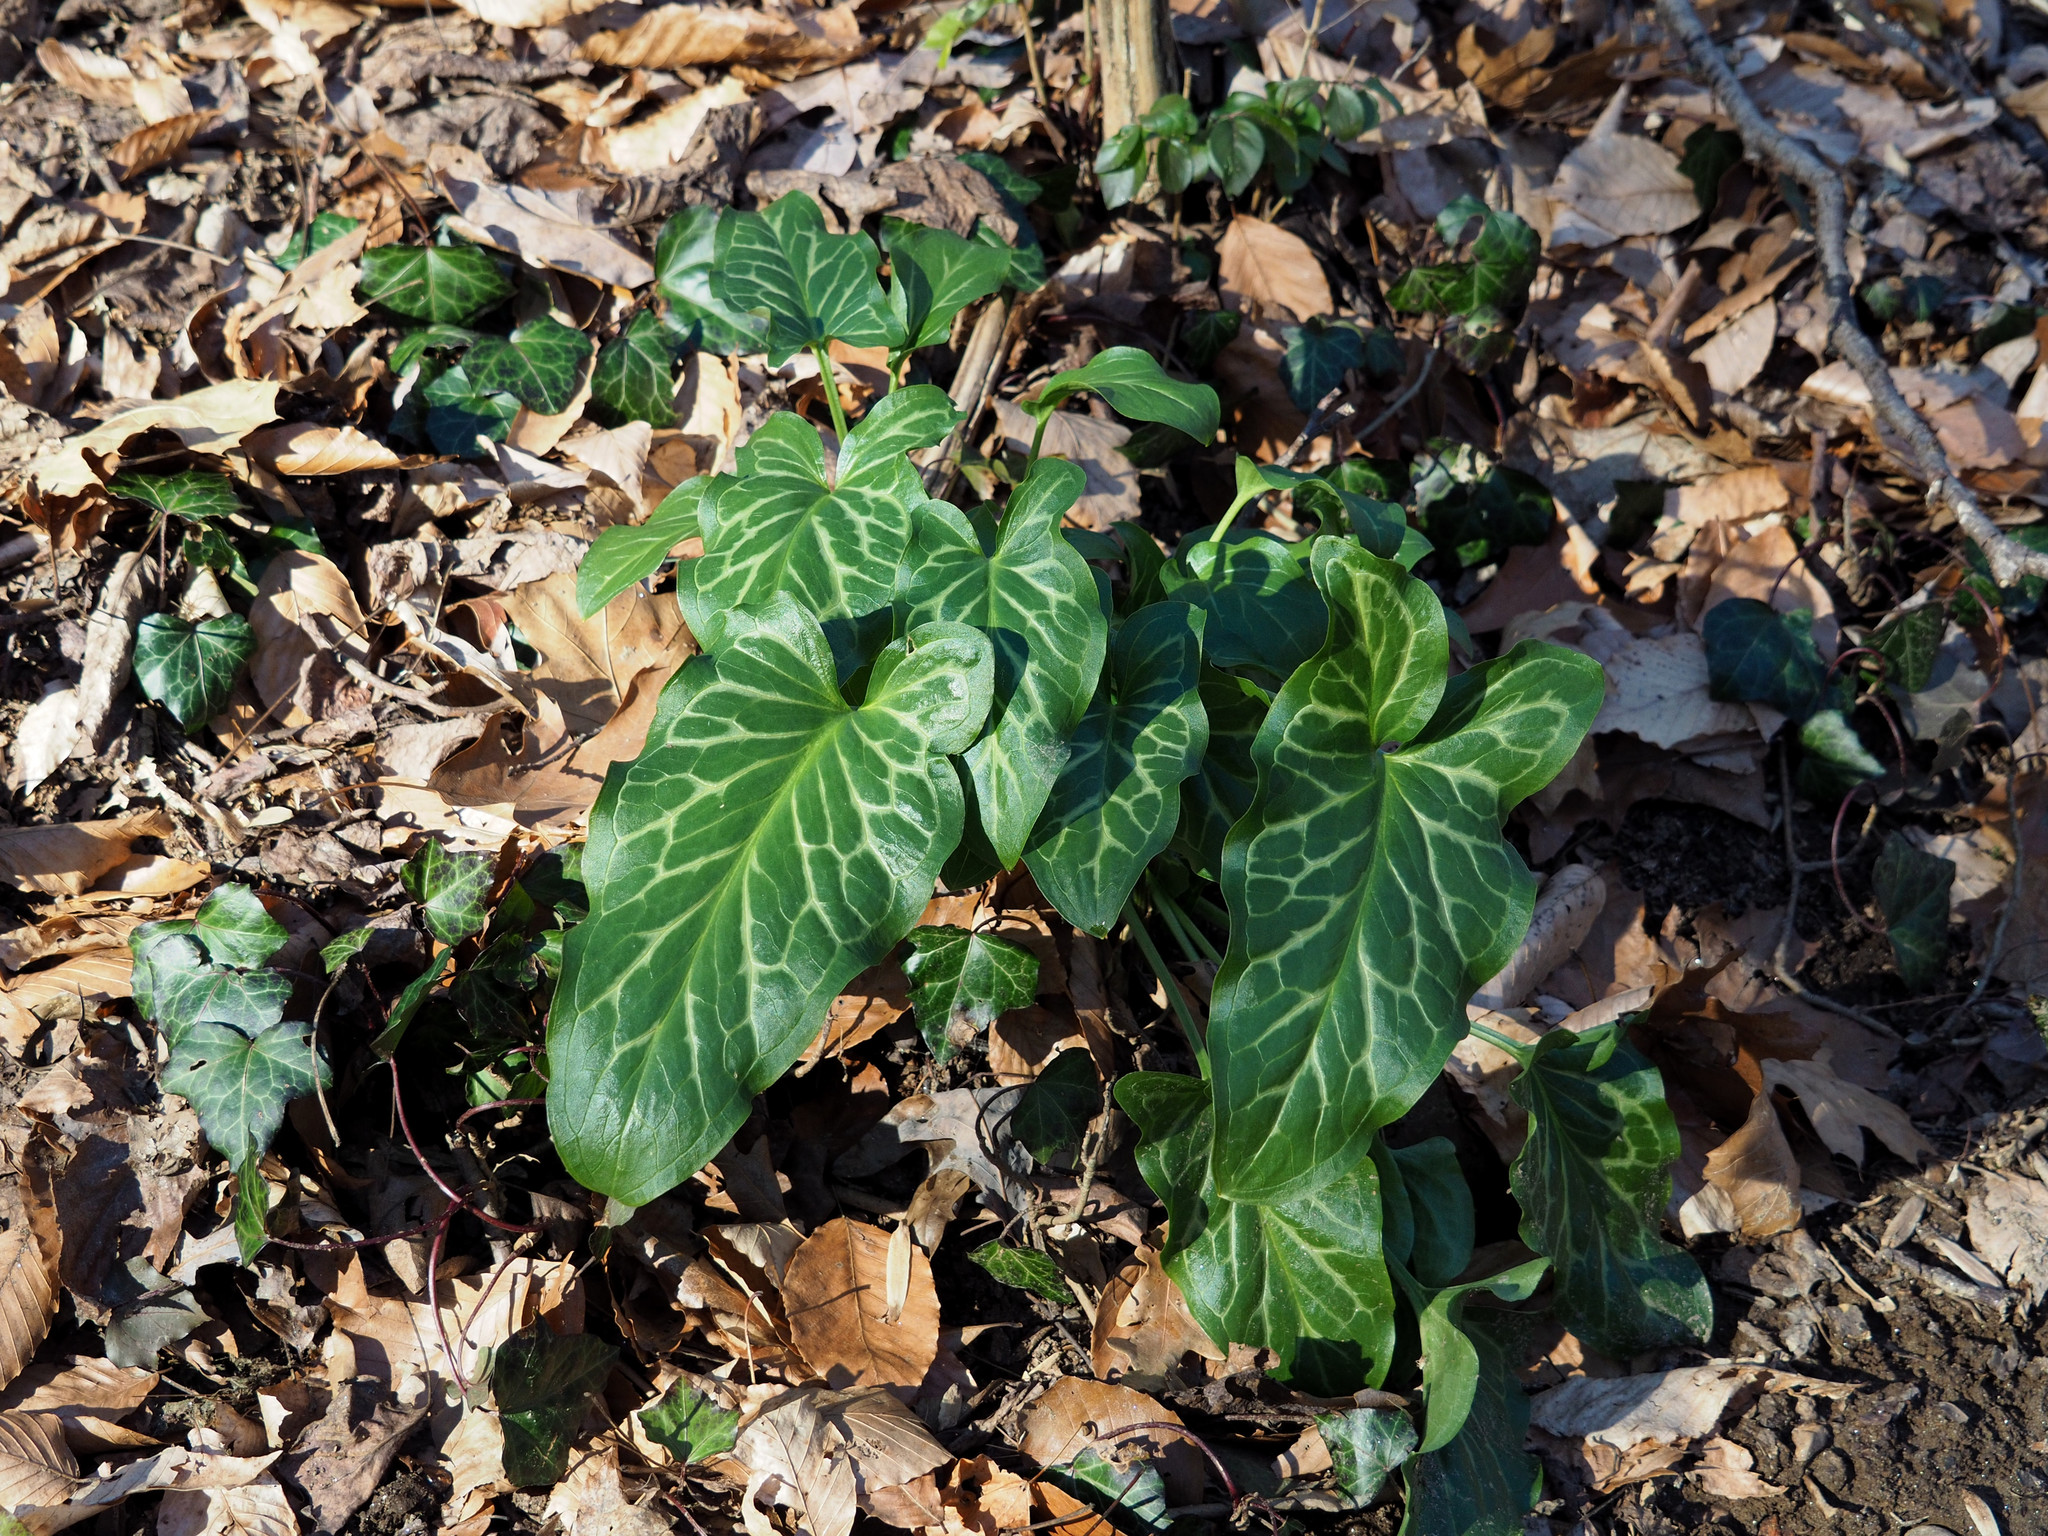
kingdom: Plantae
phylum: Tracheophyta
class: Liliopsida
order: Alismatales
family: Araceae
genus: Arum
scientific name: Arum italicum
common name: Italian lords-and-ladies
